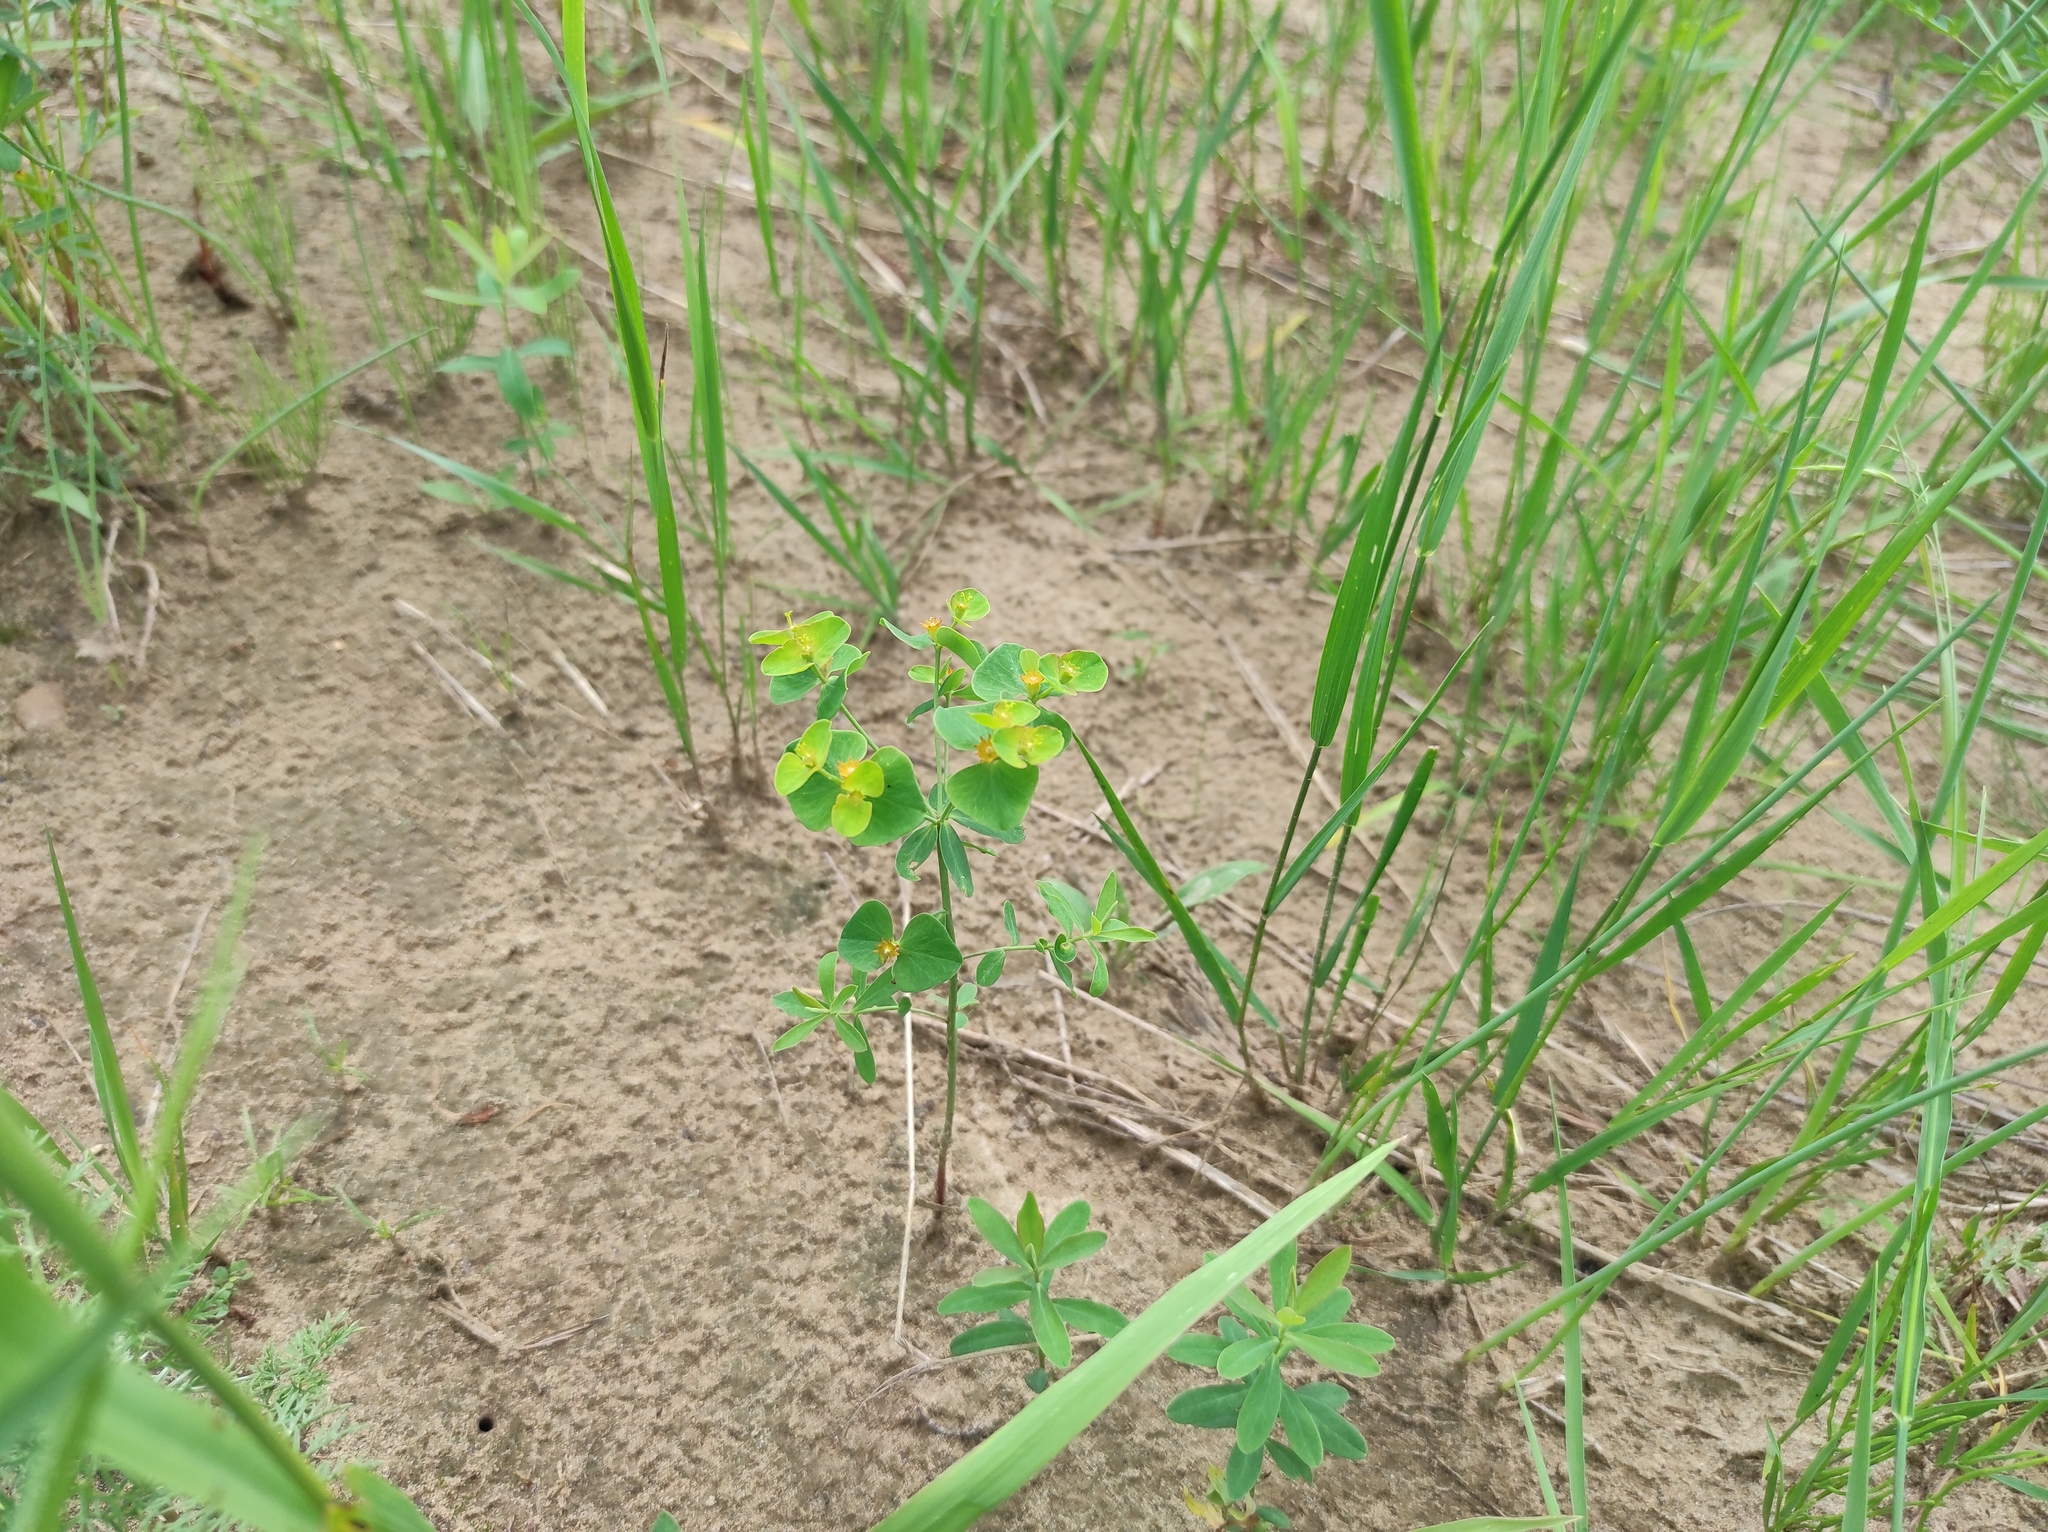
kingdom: Plantae
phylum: Tracheophyta
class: Magnoliopsida
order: Malpighiales
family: Euphorbiaceae
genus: Euphorbia
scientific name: Euphorbia borealis
